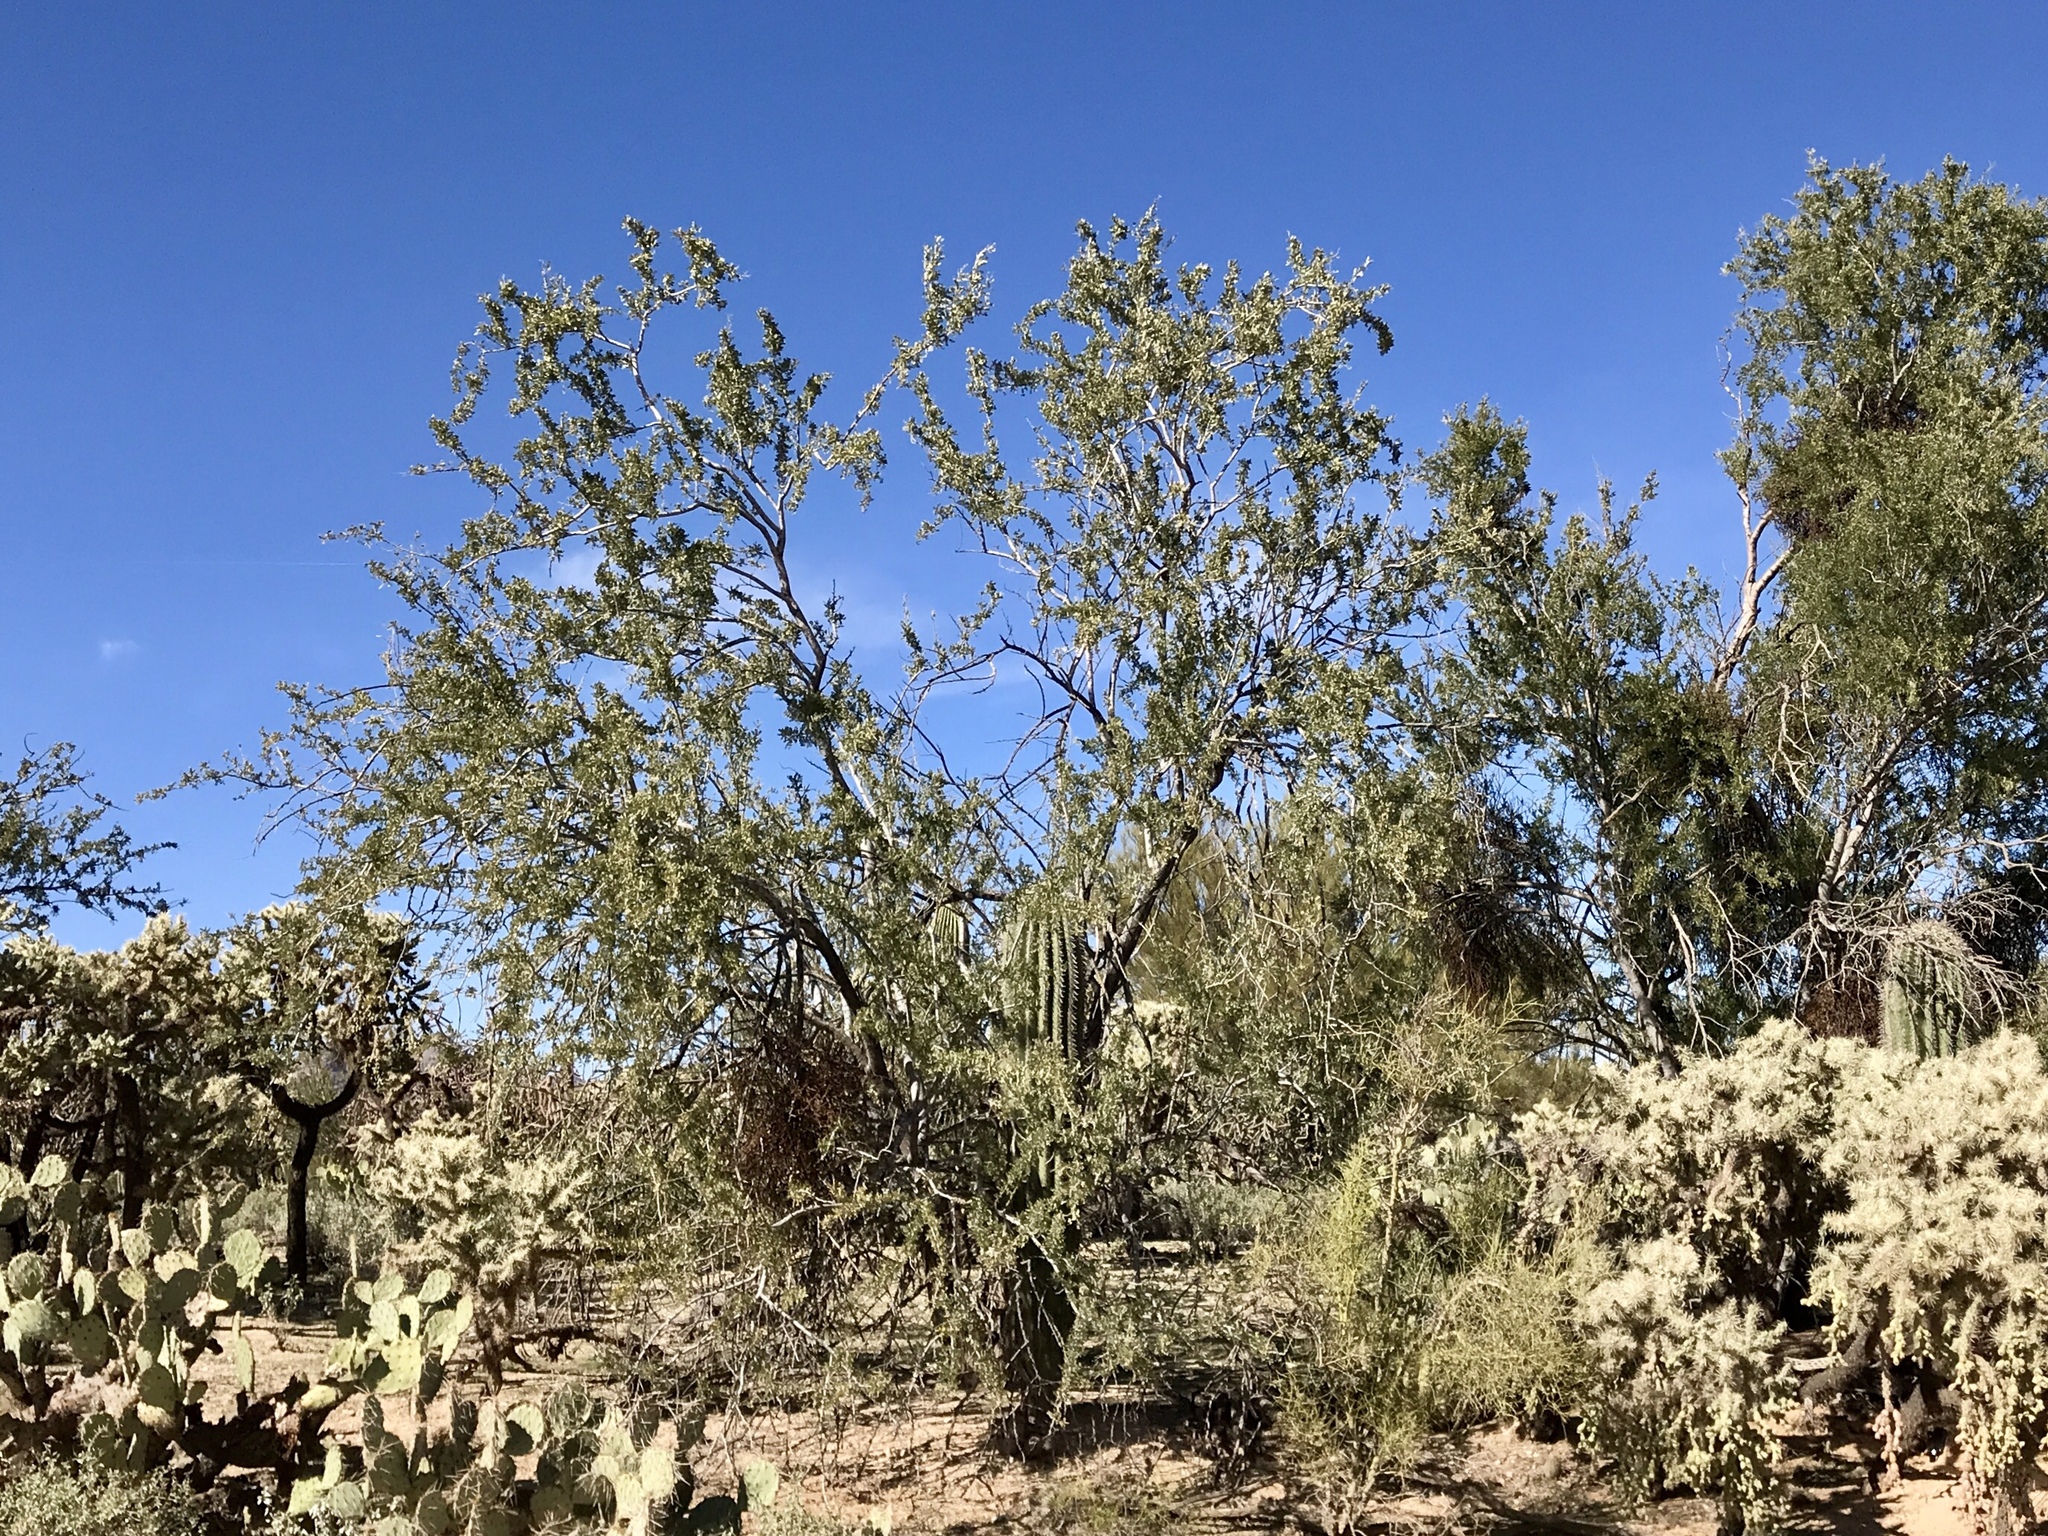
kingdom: Plantae
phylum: Tracheophyta
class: Magnoliopsida
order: Fabales
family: Fabaceae
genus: Olneya
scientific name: Olneya tesota
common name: Desert ironwood
